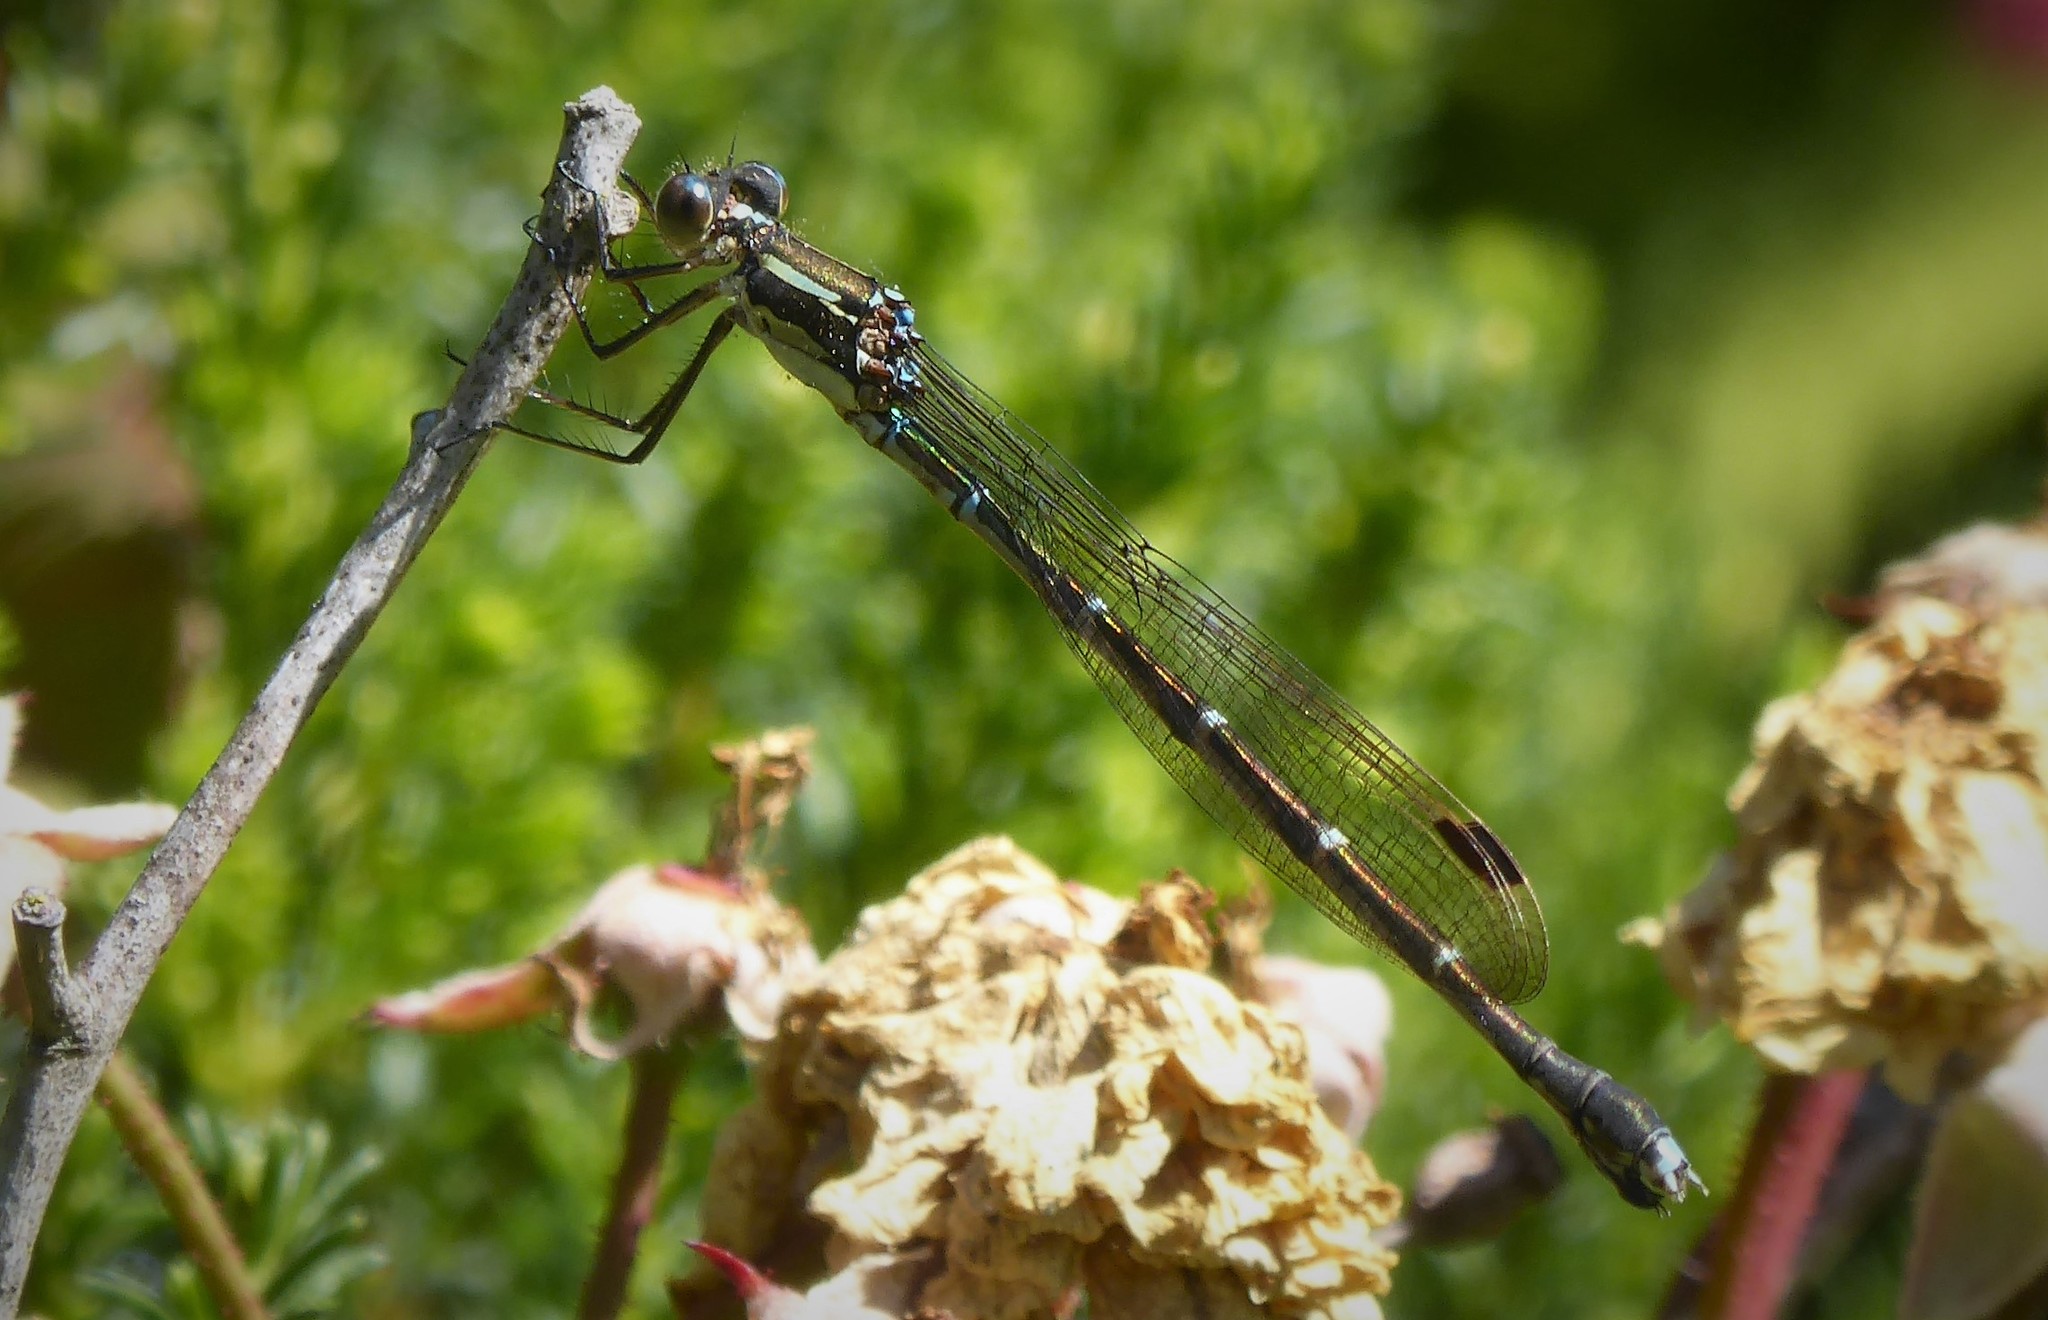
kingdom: Animalia
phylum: Arthropoda
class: Insecta
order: Odonata
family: Lestidae
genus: Austrolestes
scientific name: Austrolestes colensonis
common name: Blue damselfly
